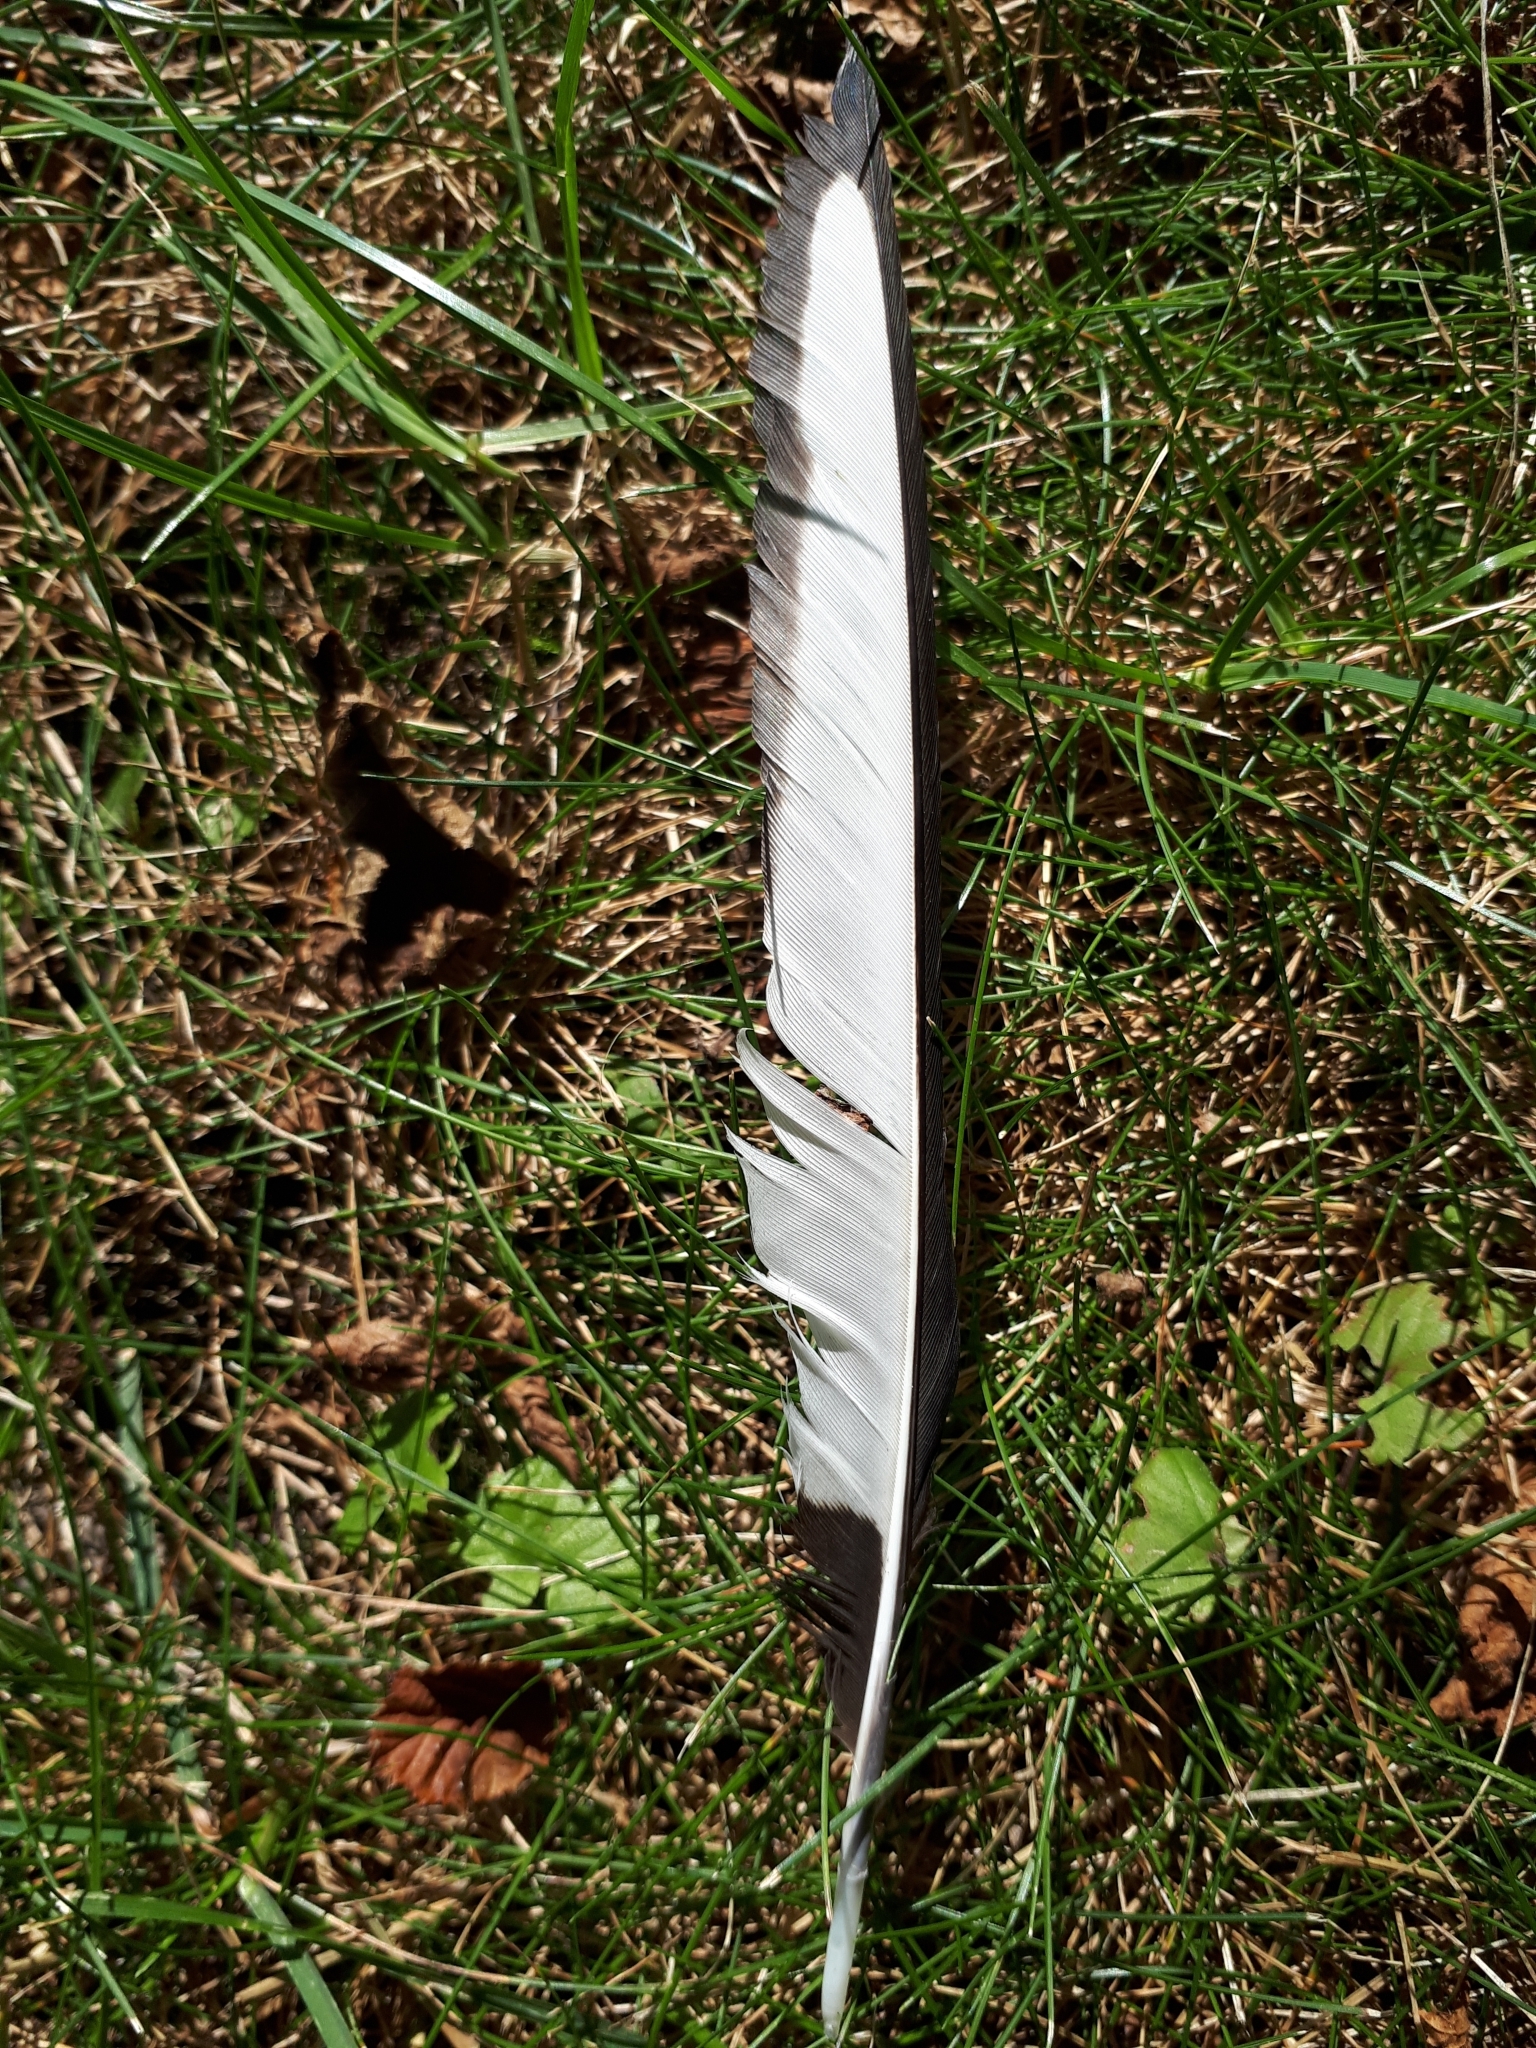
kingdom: Animalia
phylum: Chordata
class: Aves
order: Passeriformes
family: Corvidae
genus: Pica
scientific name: Pica pica
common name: Eurasian magpie
